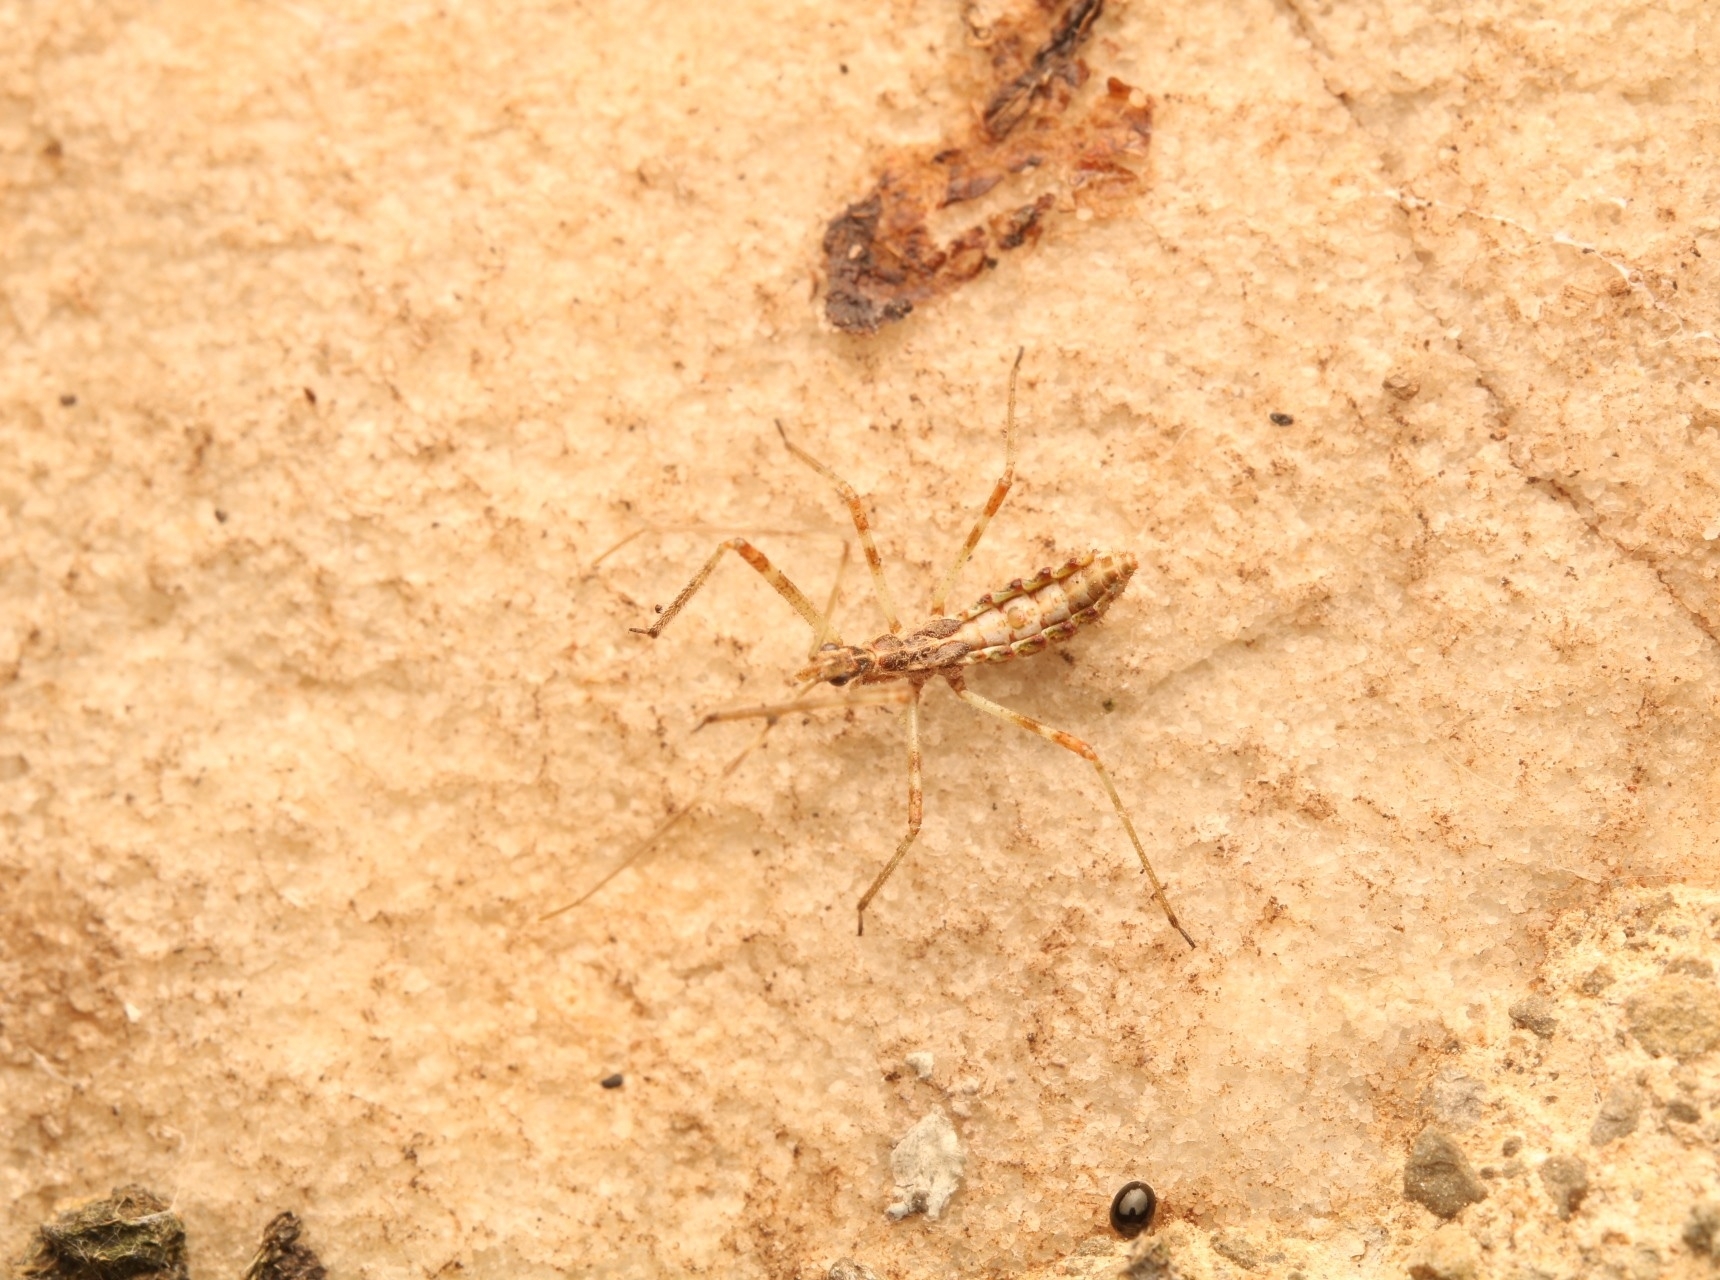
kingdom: Animalia
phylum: Arthropoda
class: Insecta
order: Hemiptera
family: Reduviidae
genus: Zelus
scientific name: Zelus tetracanthus
